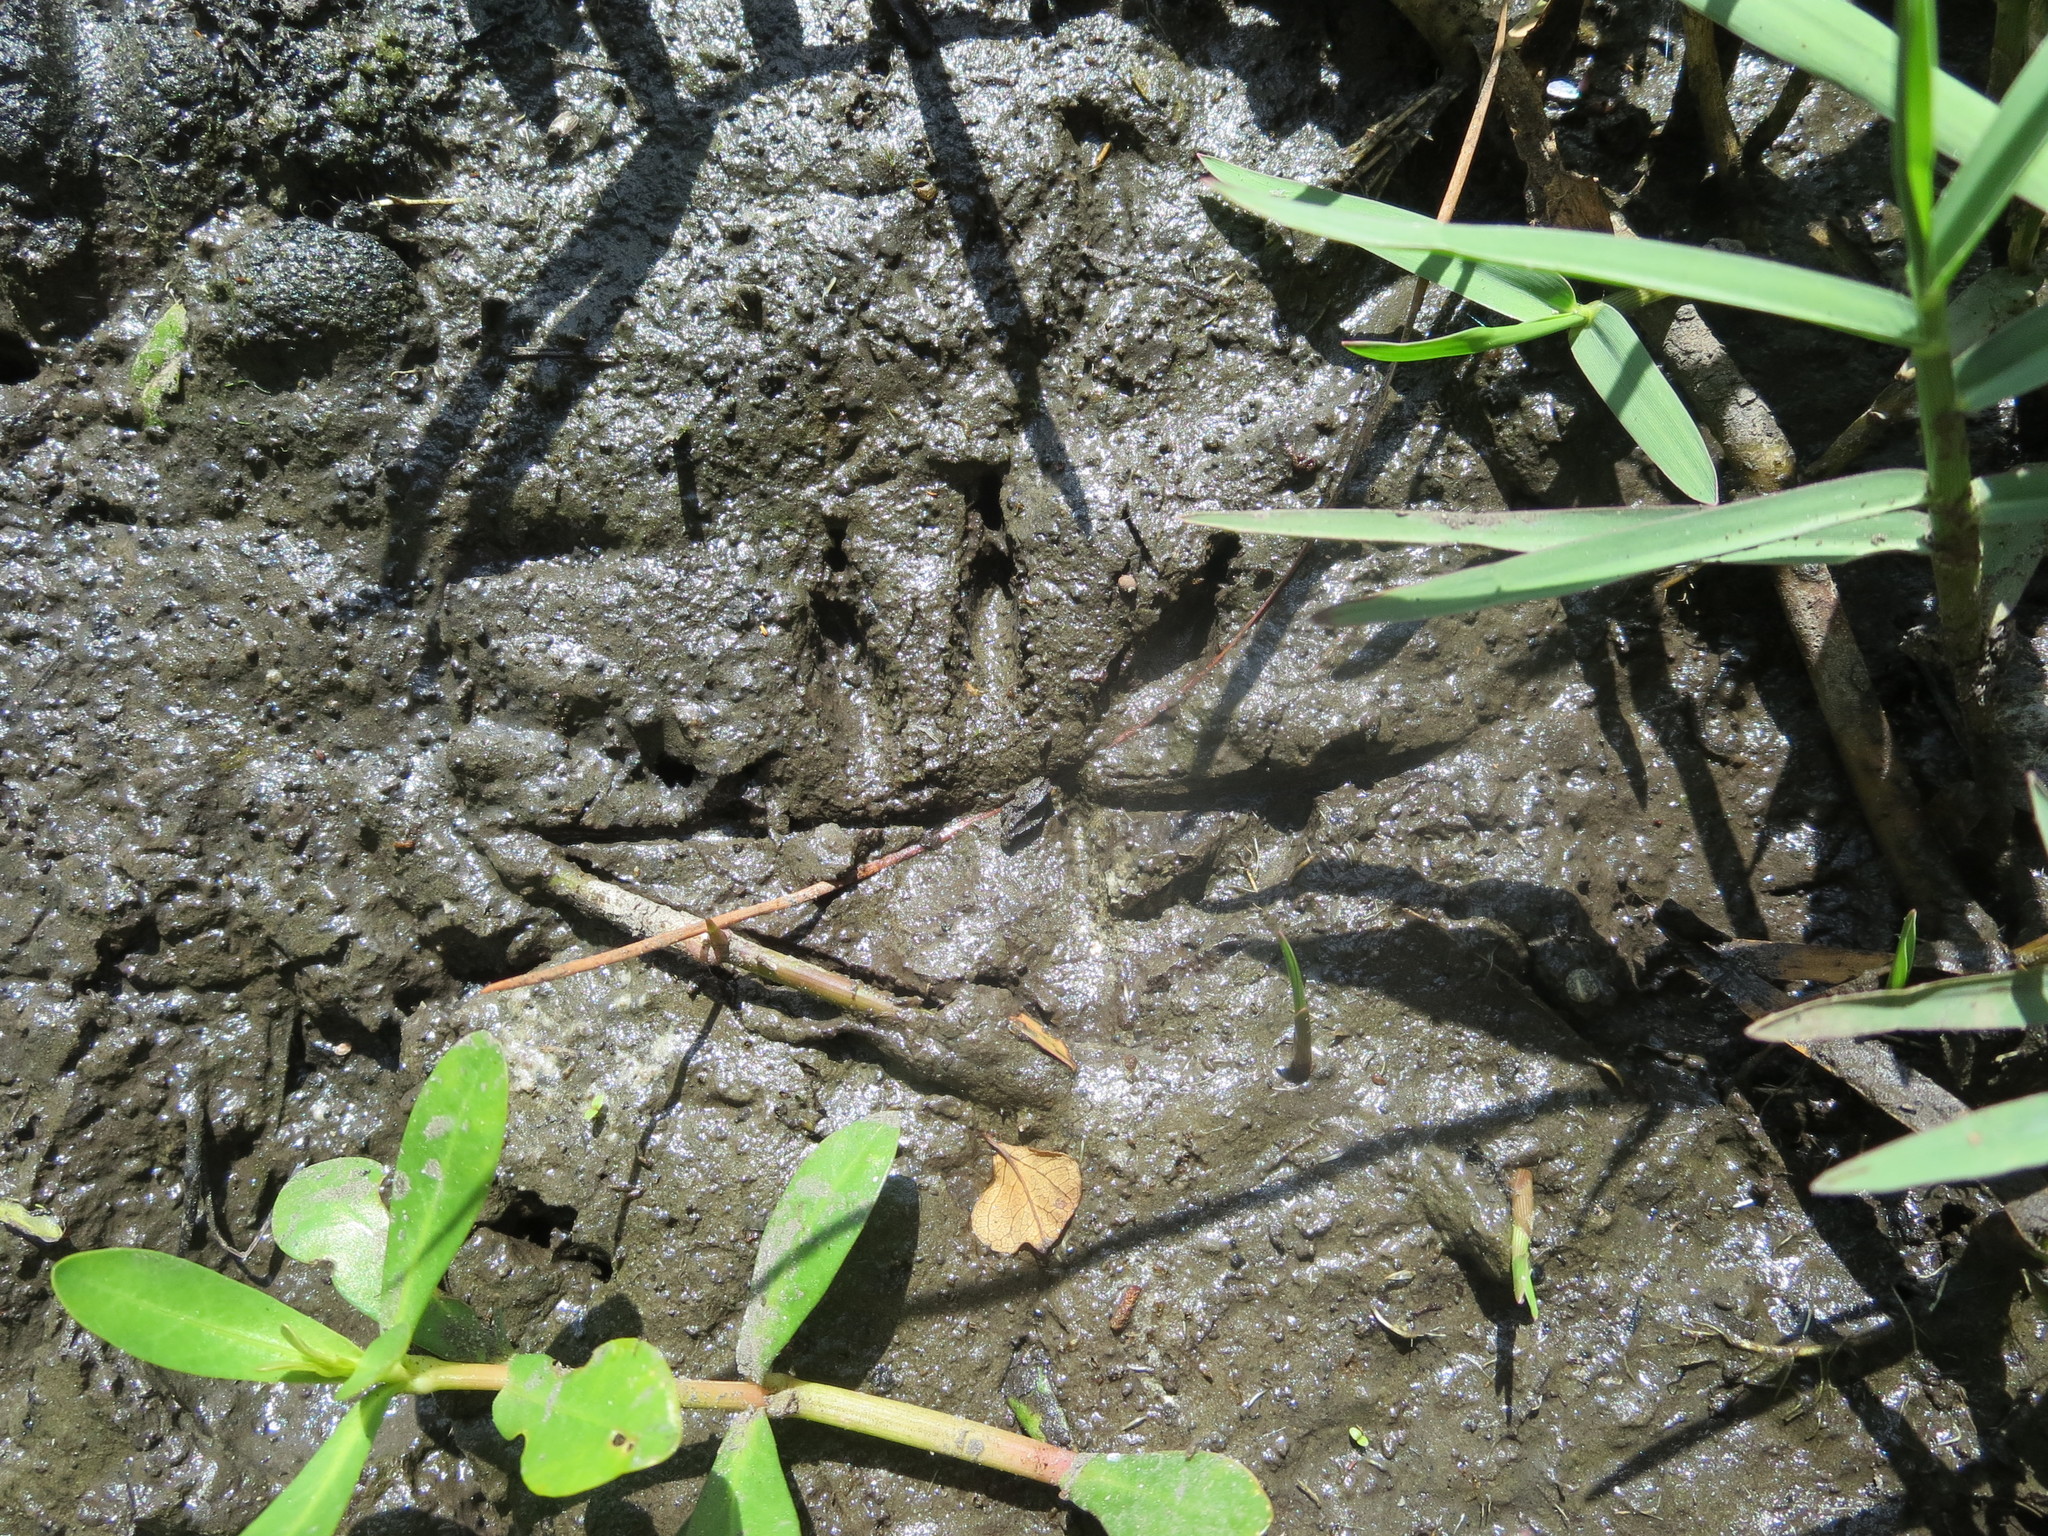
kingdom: Animalia
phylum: Chordata
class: Mammalia
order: Carnivora
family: Procyonidae
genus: Procyon
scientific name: Procyon lotor
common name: Raccoon
